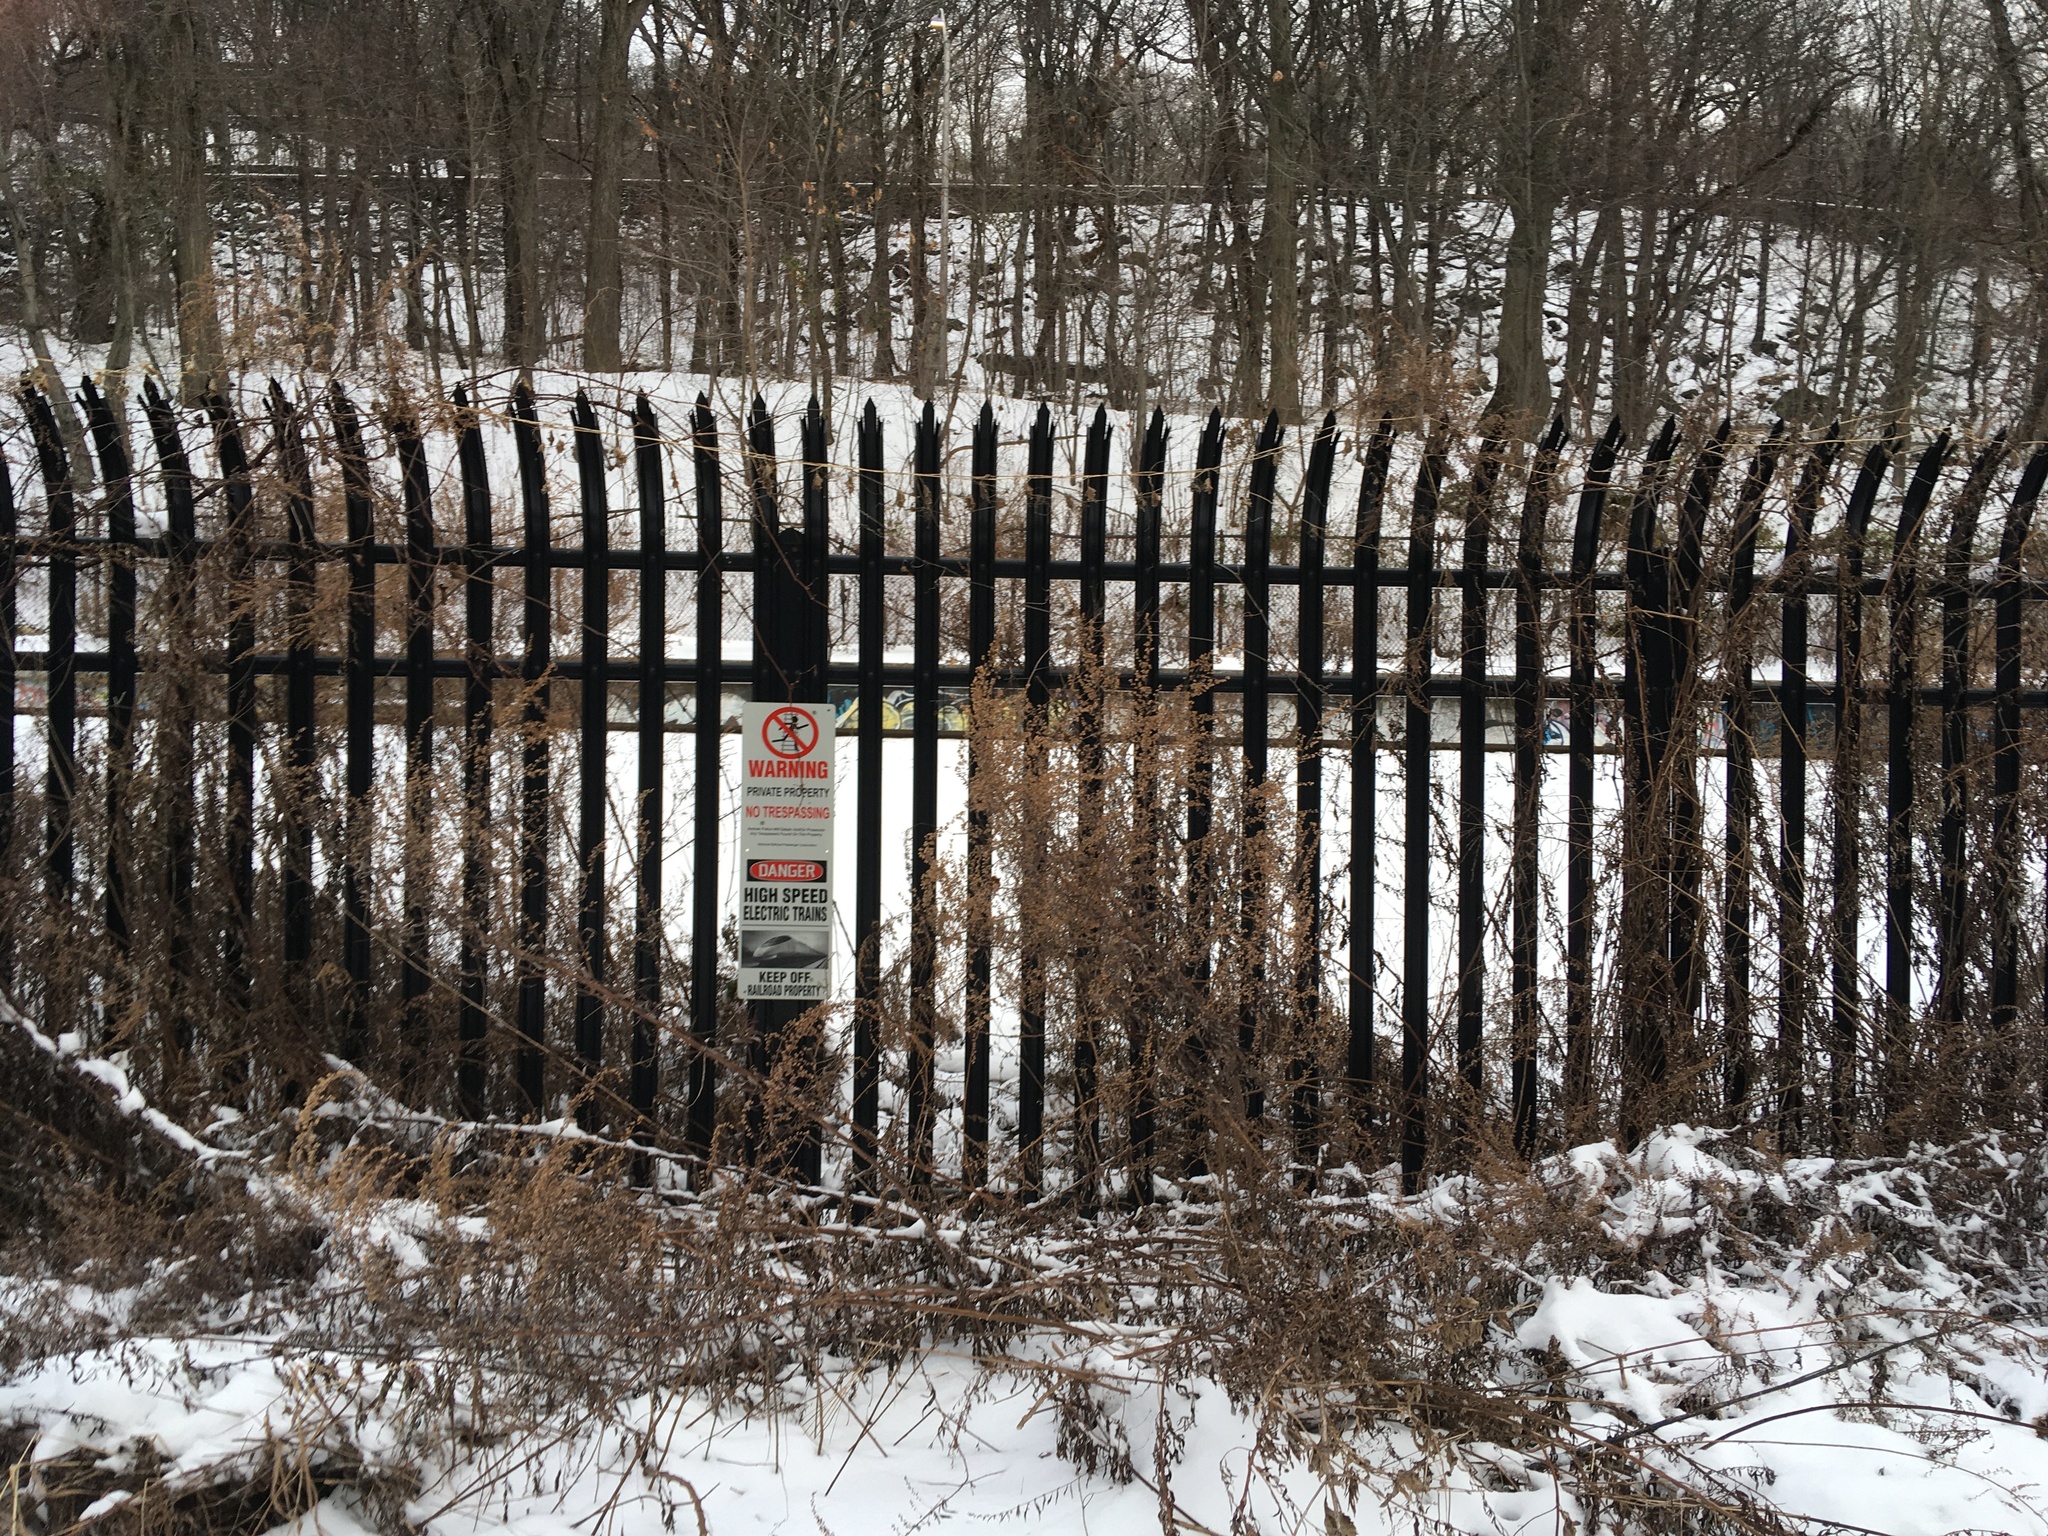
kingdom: Plantae
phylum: Tracheophyta
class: Magnoliopsida
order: Asterales
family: Asteraceae
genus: Artemisia
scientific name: Artemisia vulgaris
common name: Mugwort
